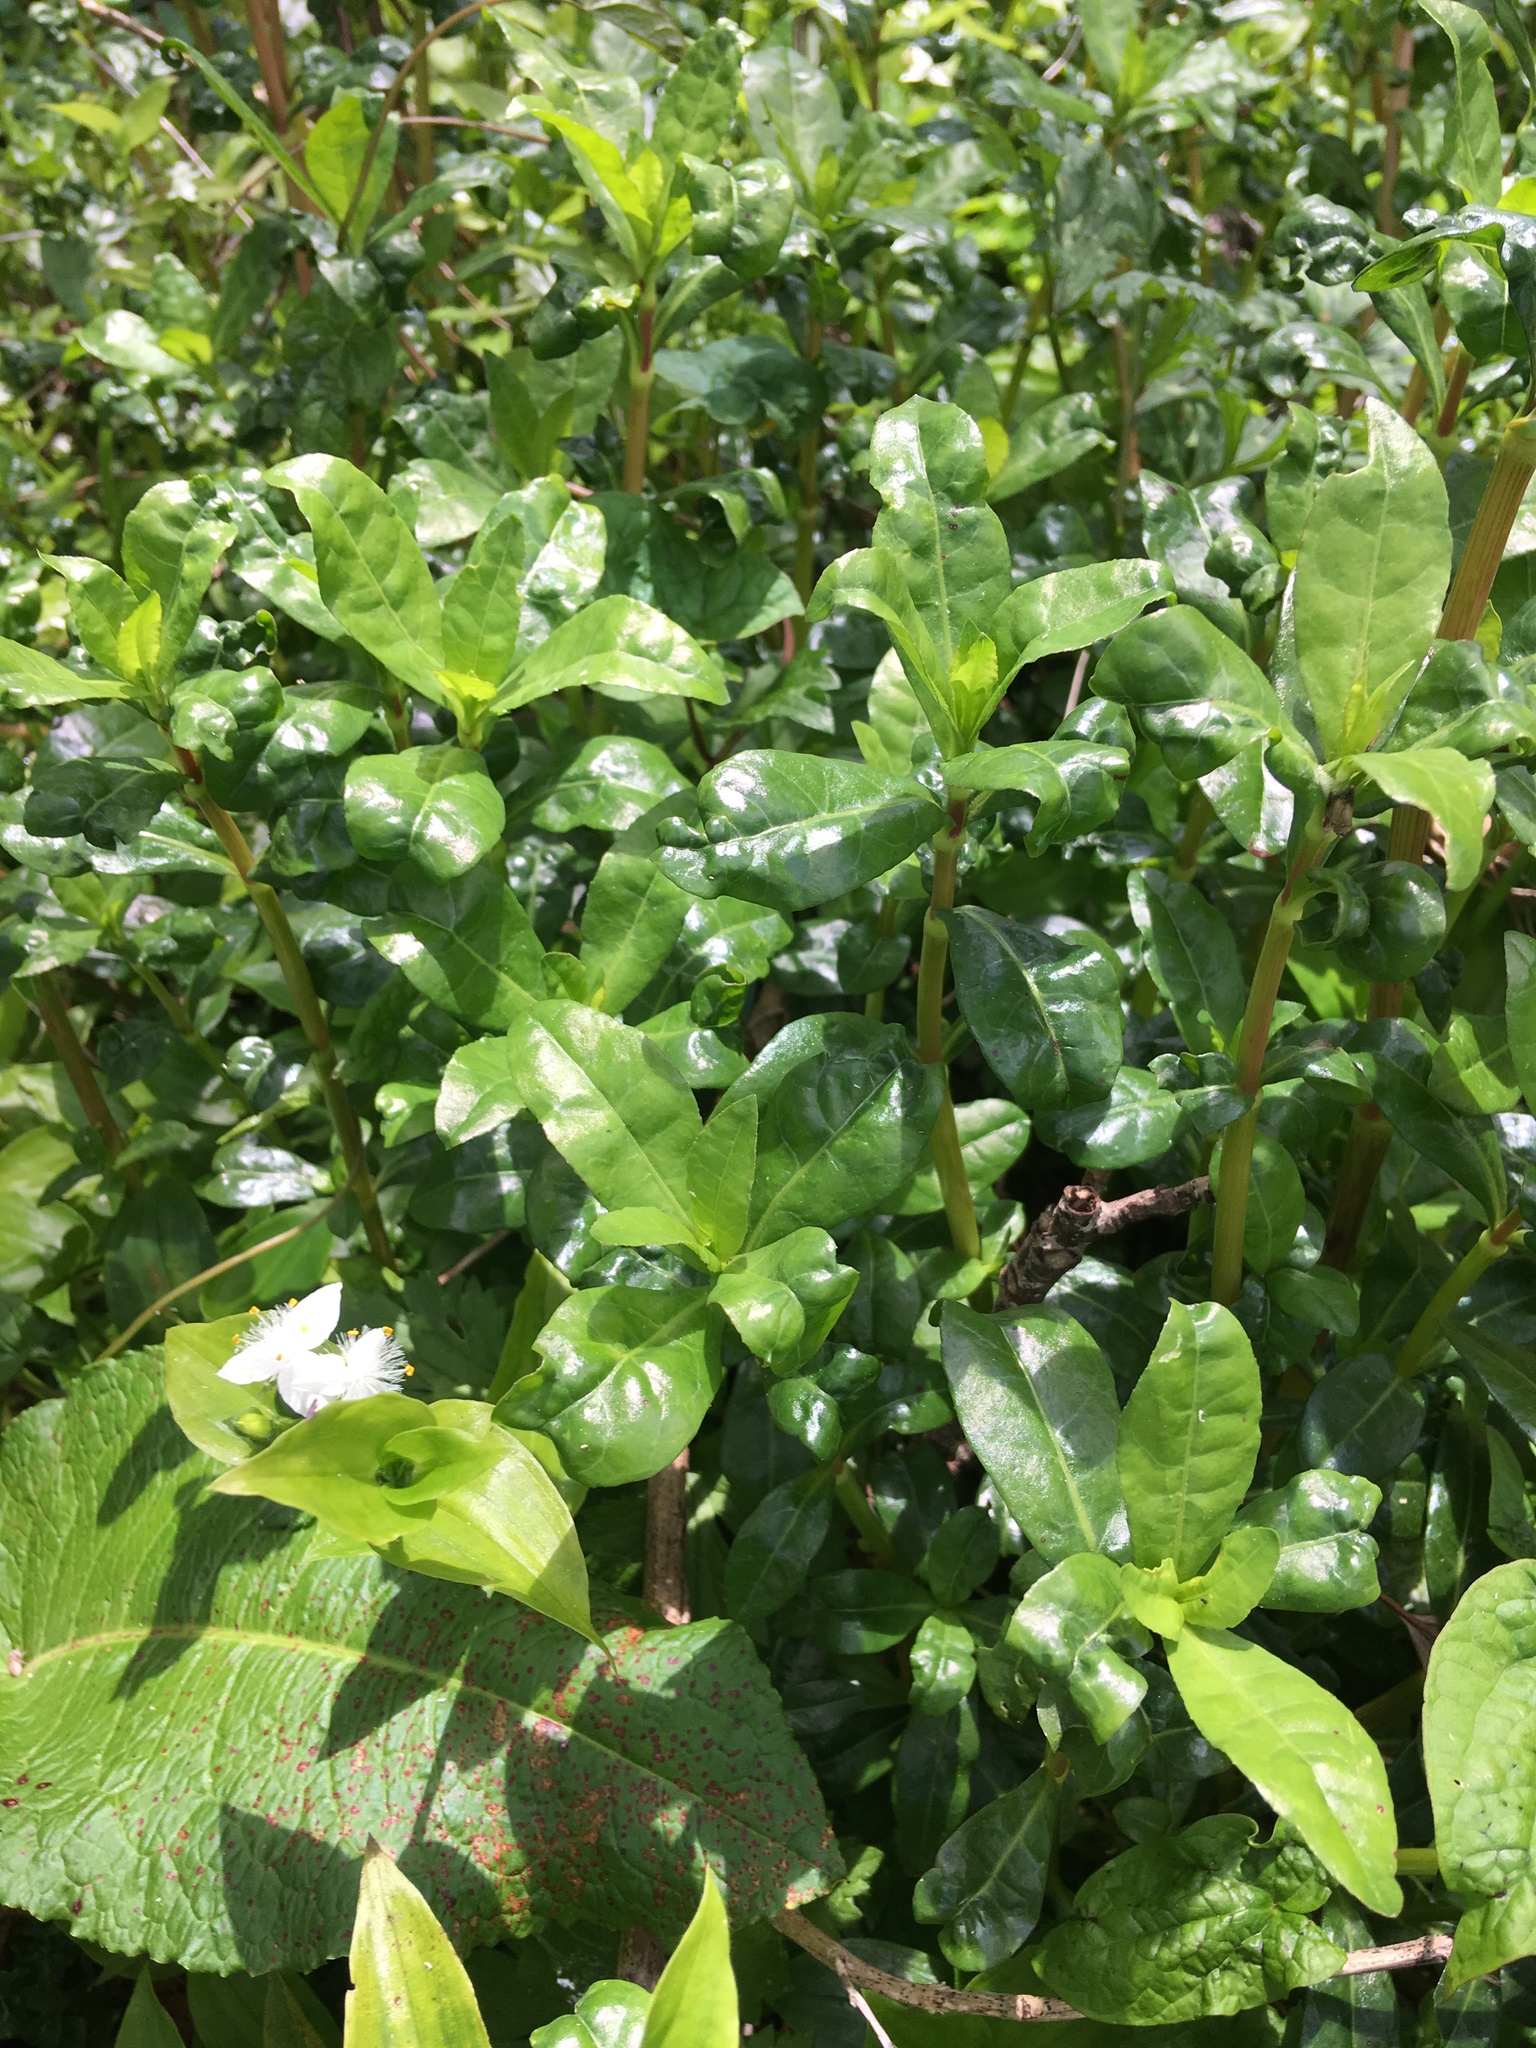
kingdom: Plantae
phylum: Tracheophyta
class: Magnoliopsida
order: Caryophyllales
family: Amaranthaceae
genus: Alternanthera
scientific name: Alternanthera philoxeroides
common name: Alligatorweed
